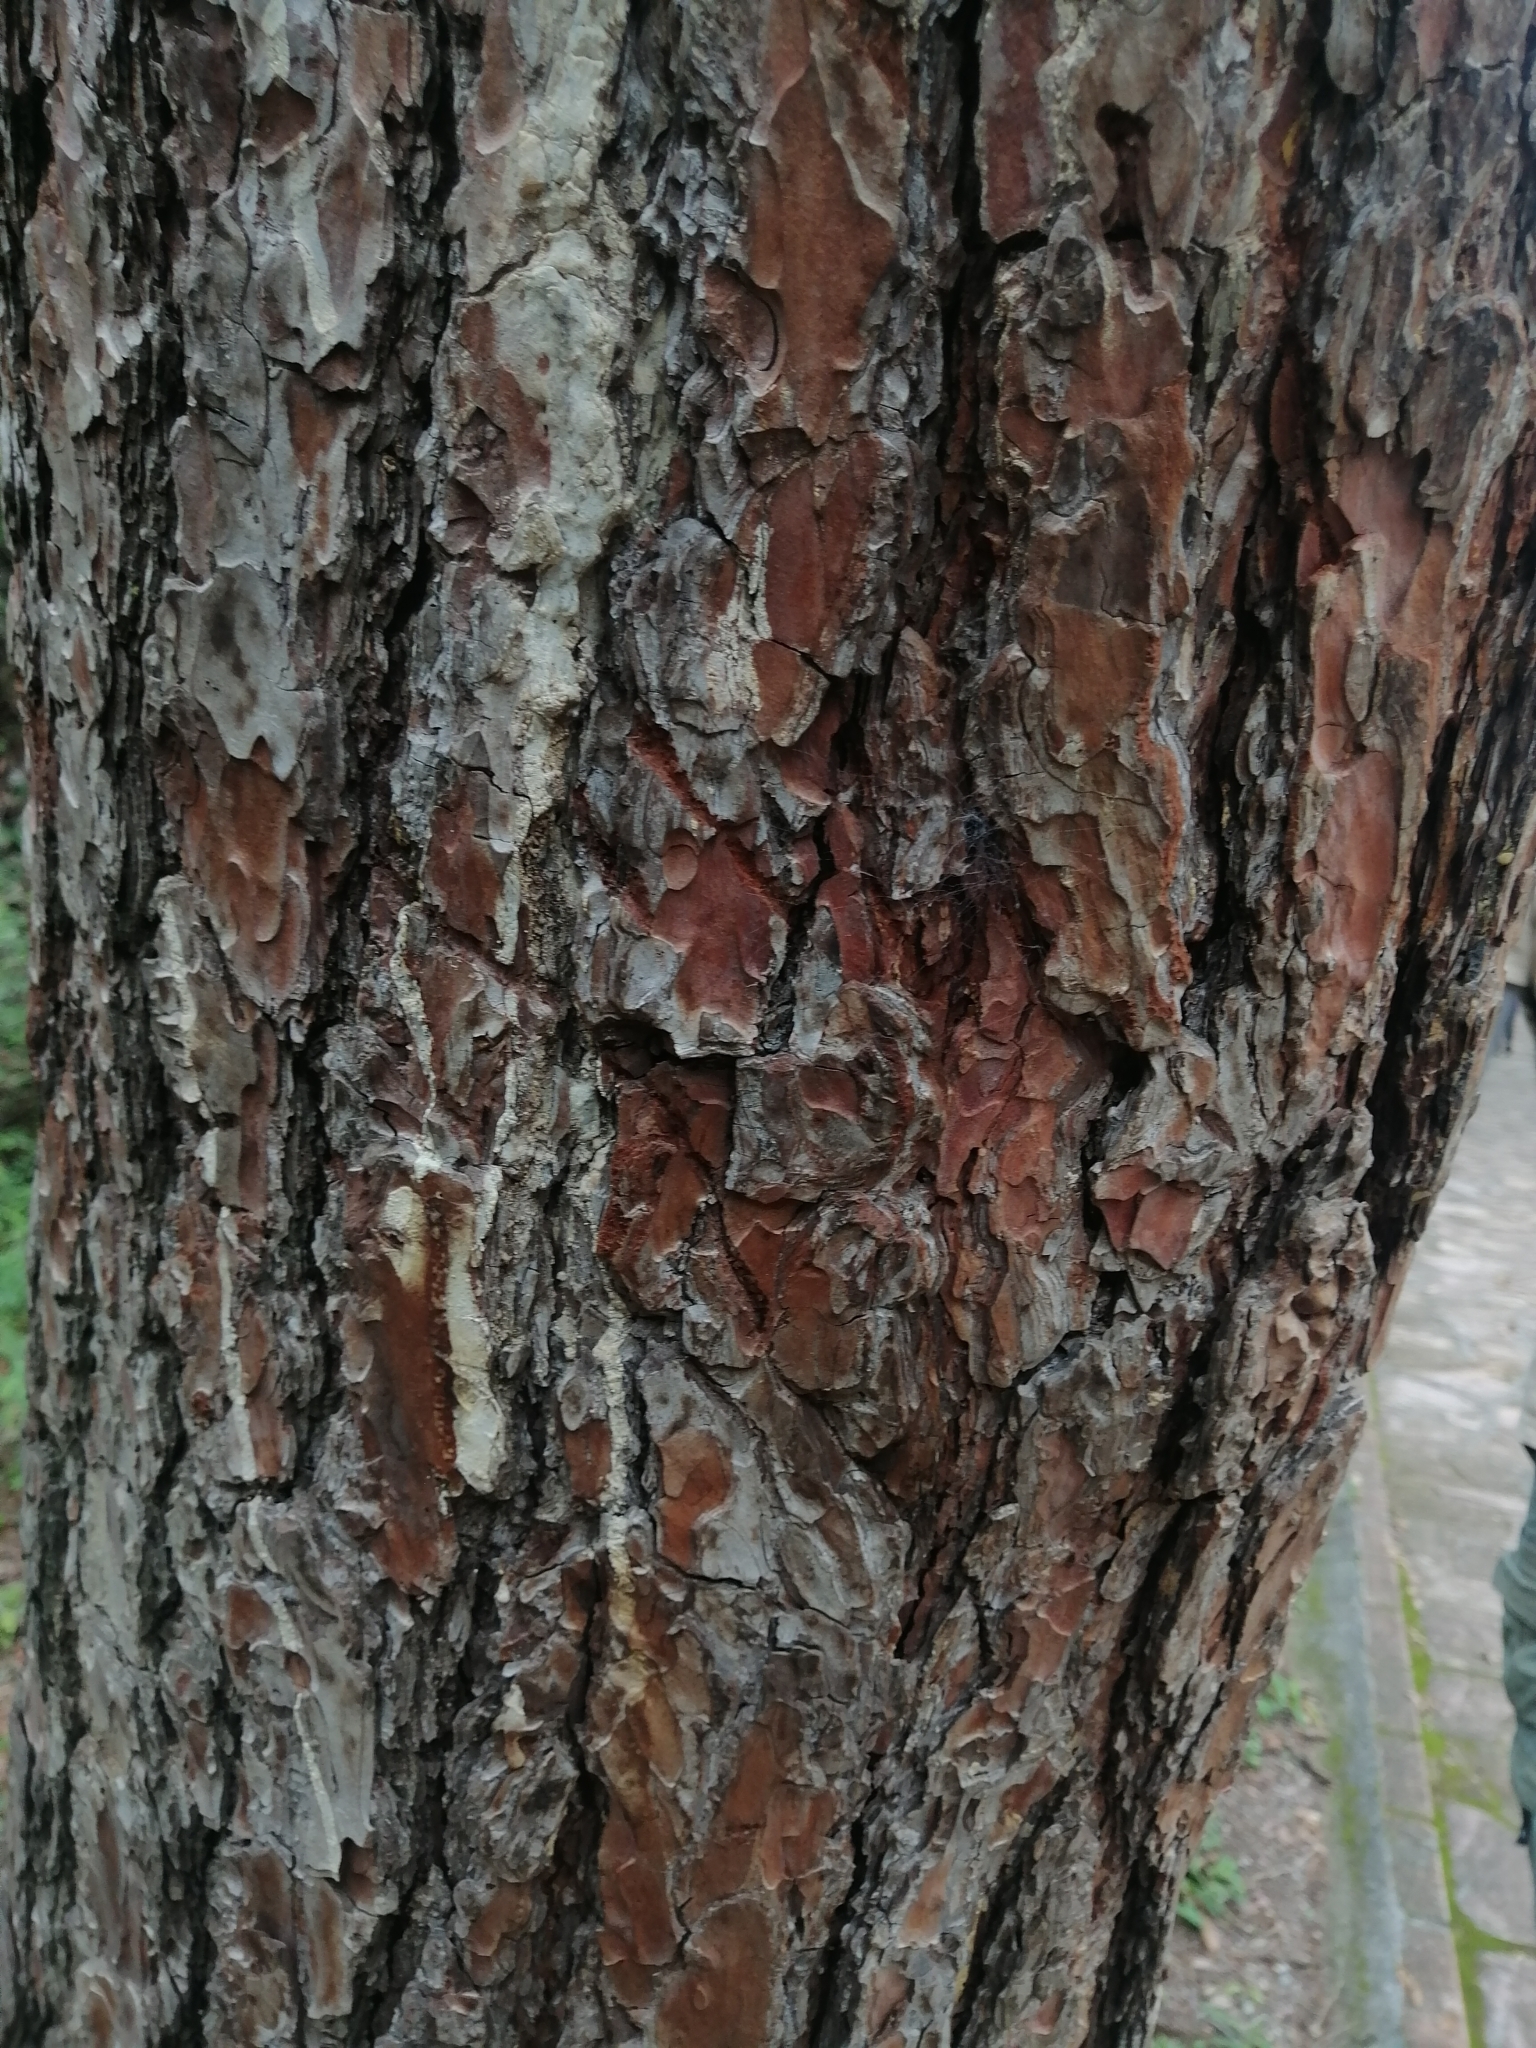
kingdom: Animalia
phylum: Chordata
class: Mammalia
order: Carnivora
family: Ursidae
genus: Ursus
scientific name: Ursus americanus
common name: American black bear
